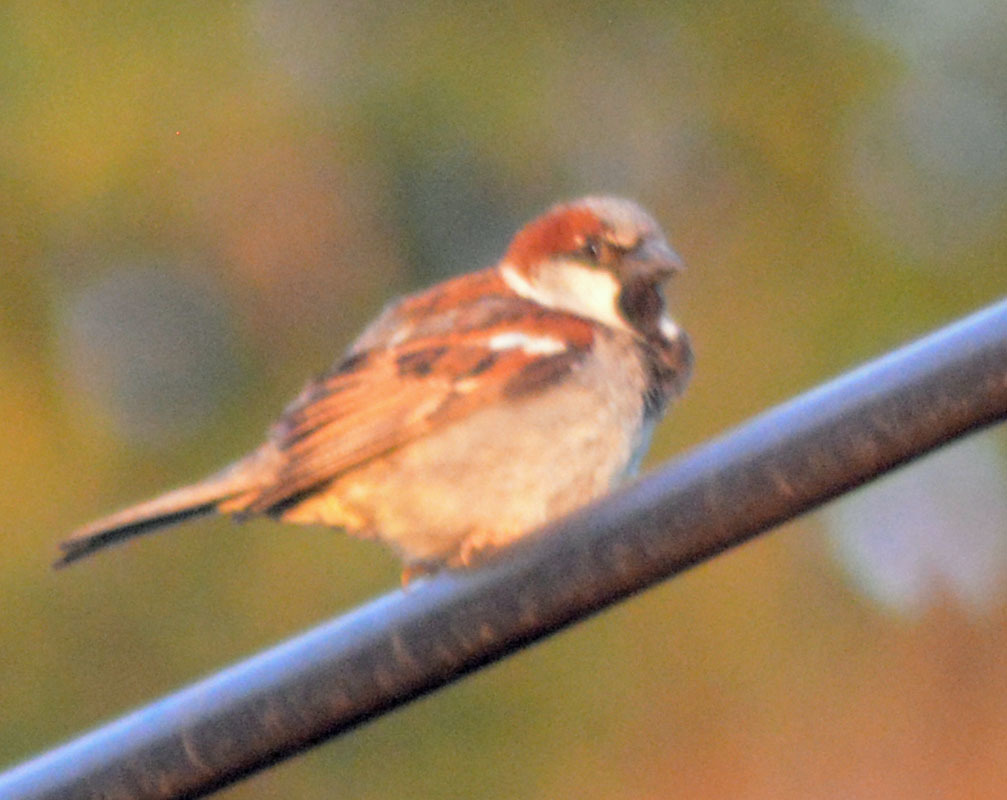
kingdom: Animalia
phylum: Chordata
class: Aves
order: Passeriformes
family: Passeridae
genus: Passer
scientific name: Passer domesticus
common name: House sparrow
